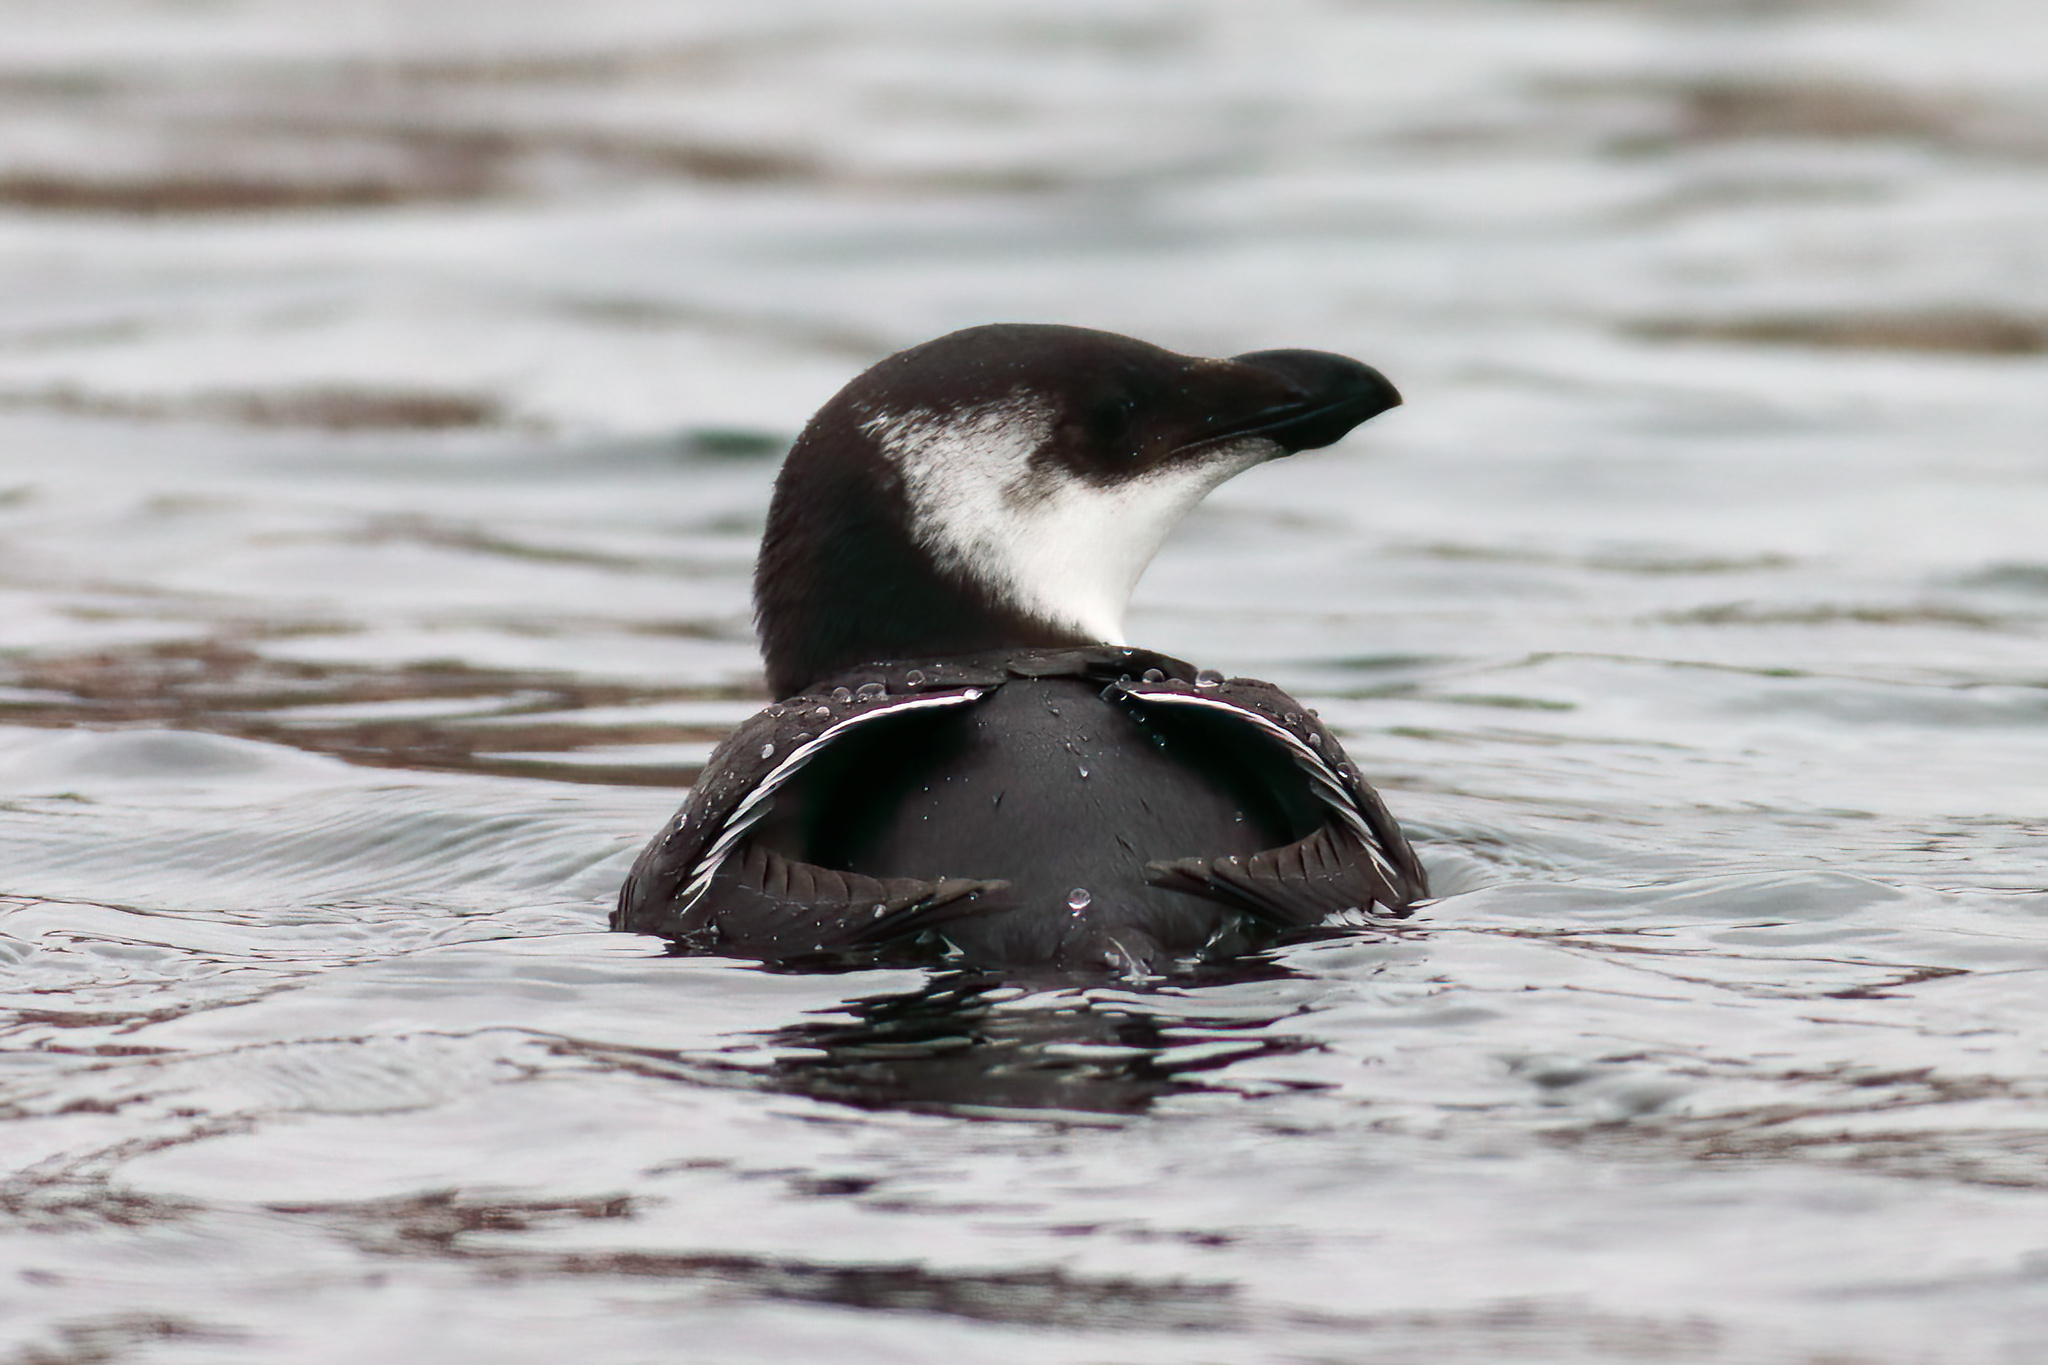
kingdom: Animalia
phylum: Chordata
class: Aves
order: Charadriiformes
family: Alcidae
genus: Alca
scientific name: Alca torda
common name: Razorbill
